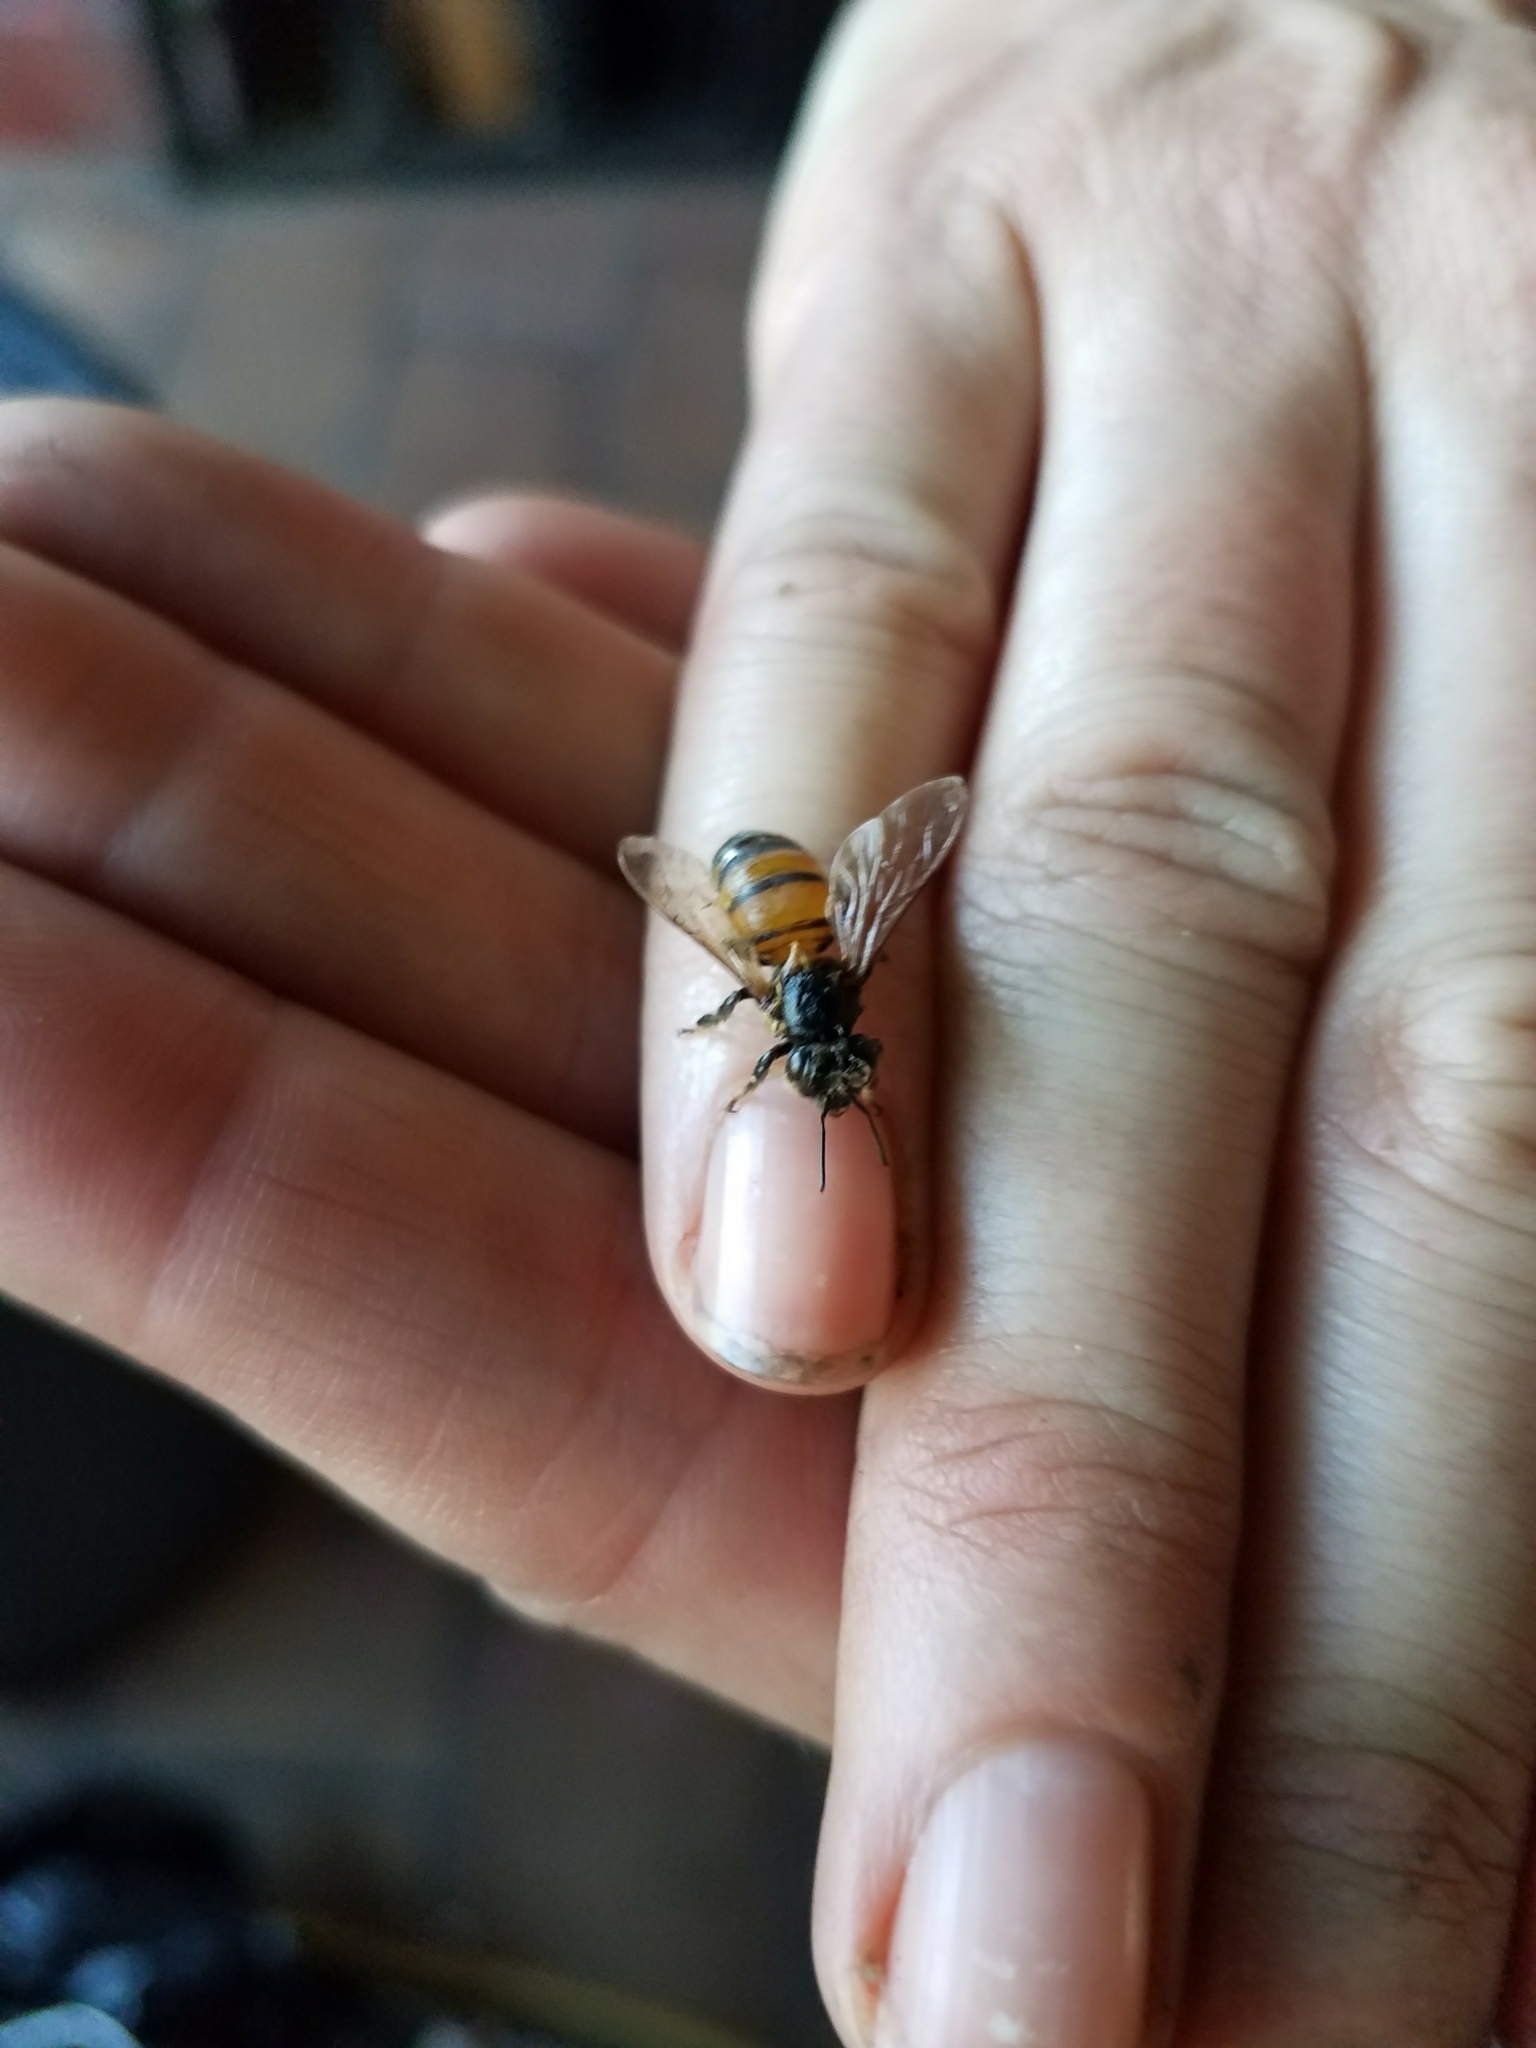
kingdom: Animalia
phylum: Arthropoda
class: Insecta
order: Hymenoptera
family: Apidae
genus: Apis
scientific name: Apis mellifera
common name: Honey bee
